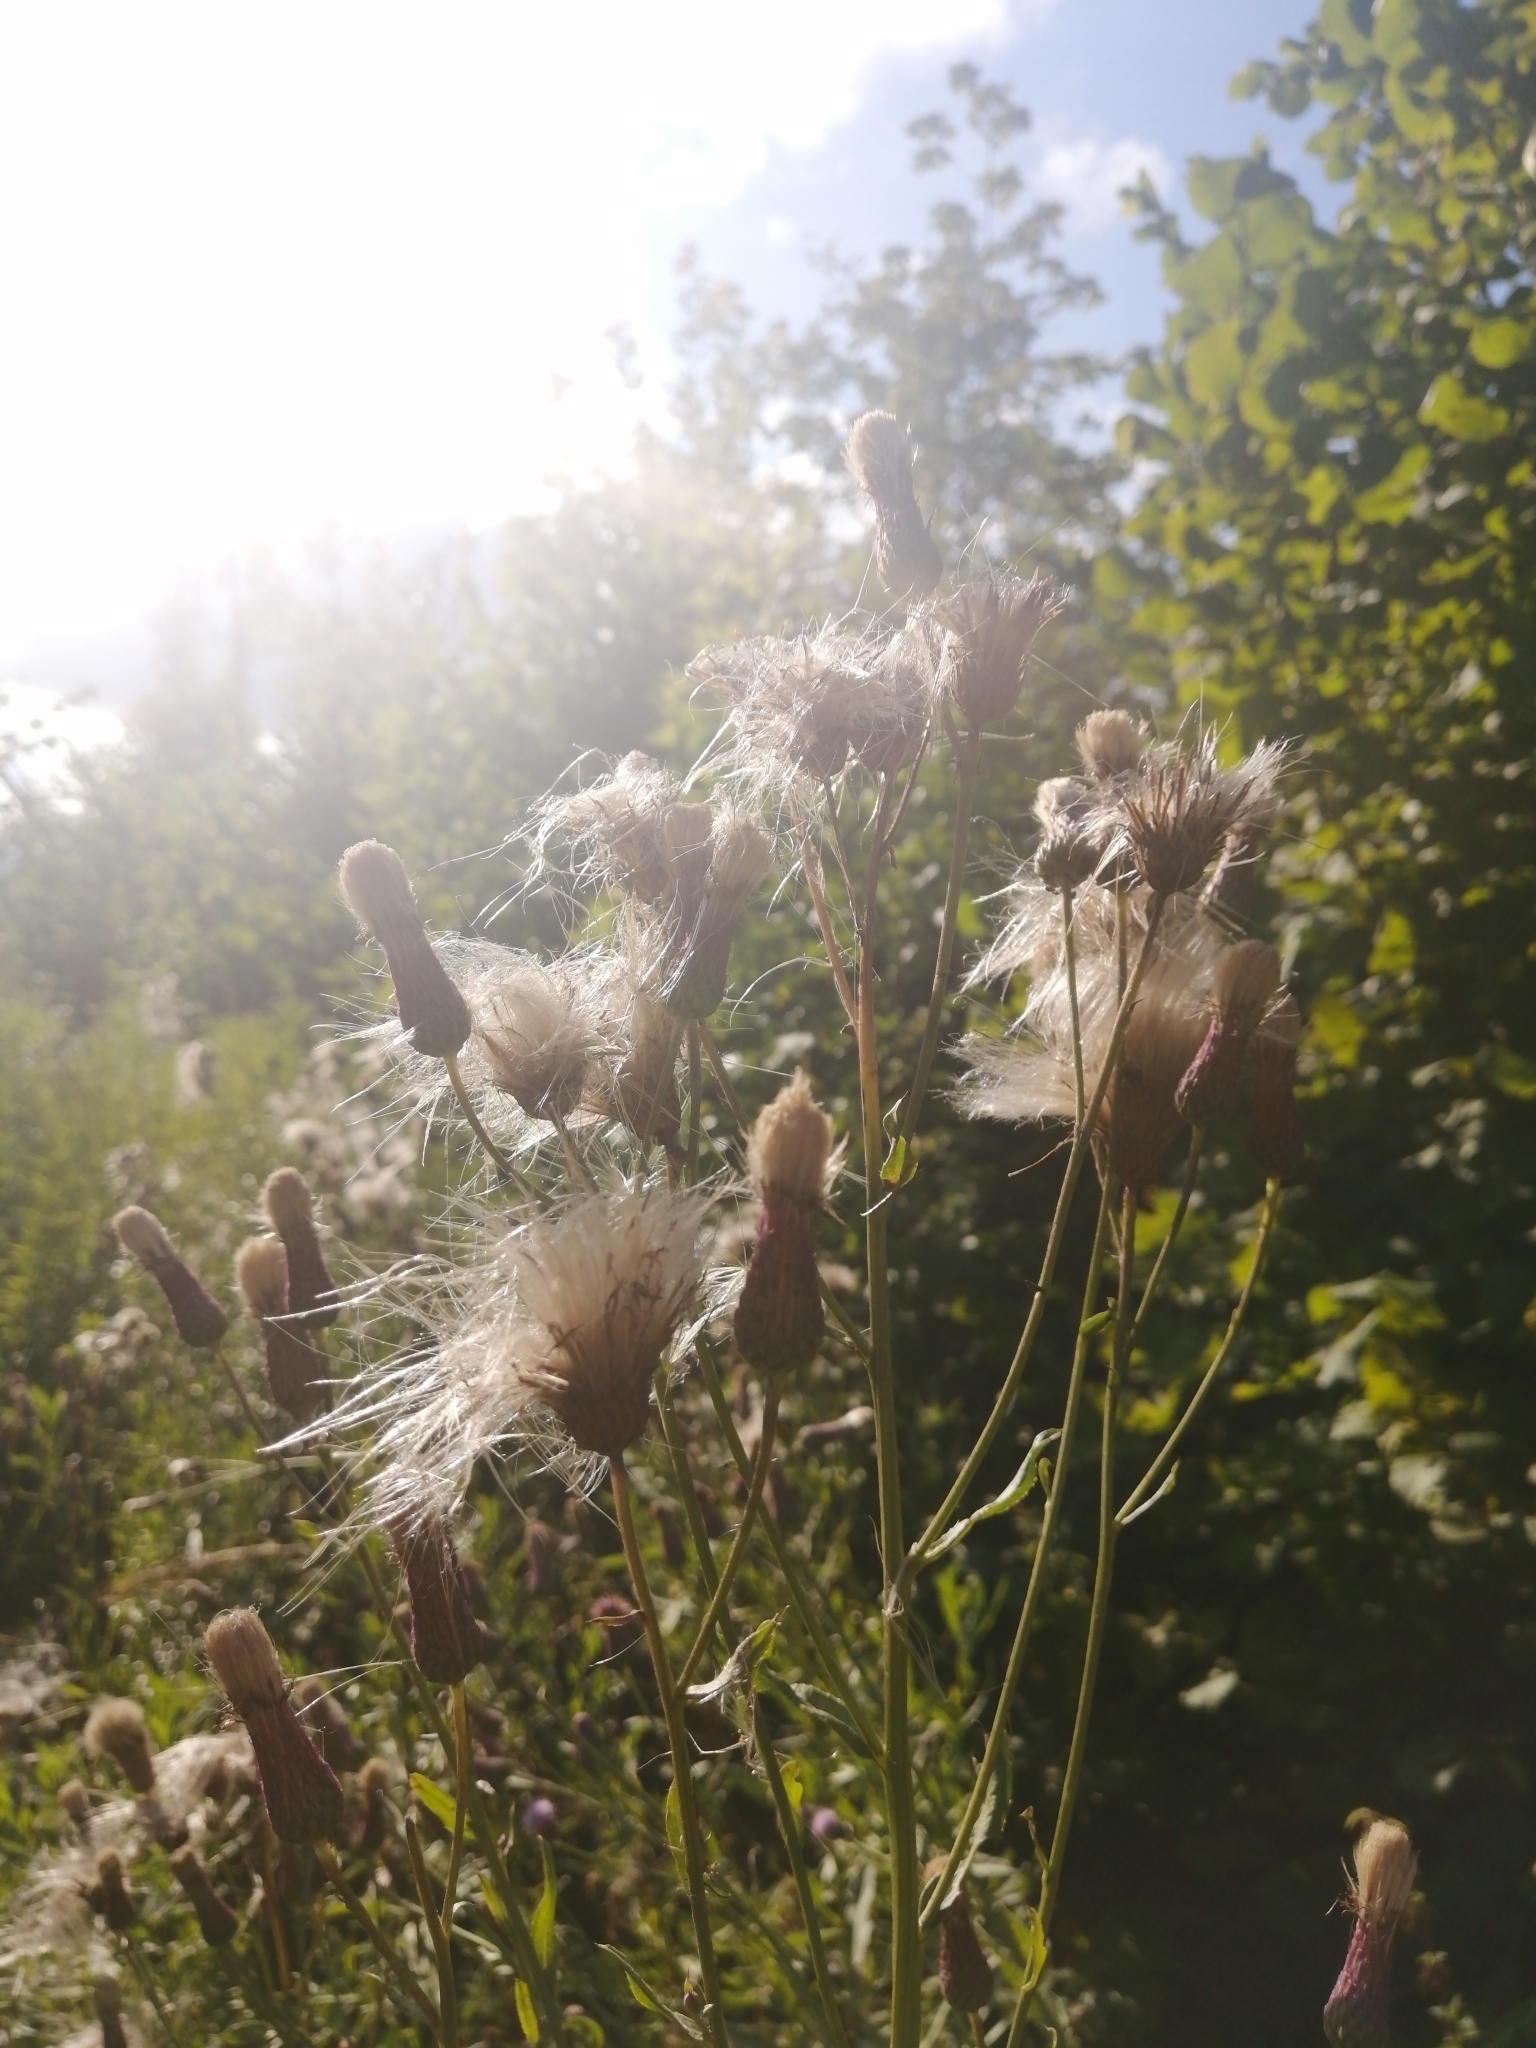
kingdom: Plantae
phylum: Tracheophyta
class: Magnoliopsida
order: Asterales
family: Asteraceae
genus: Cirsium
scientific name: Cirsium arvense
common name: Creeping thistle
